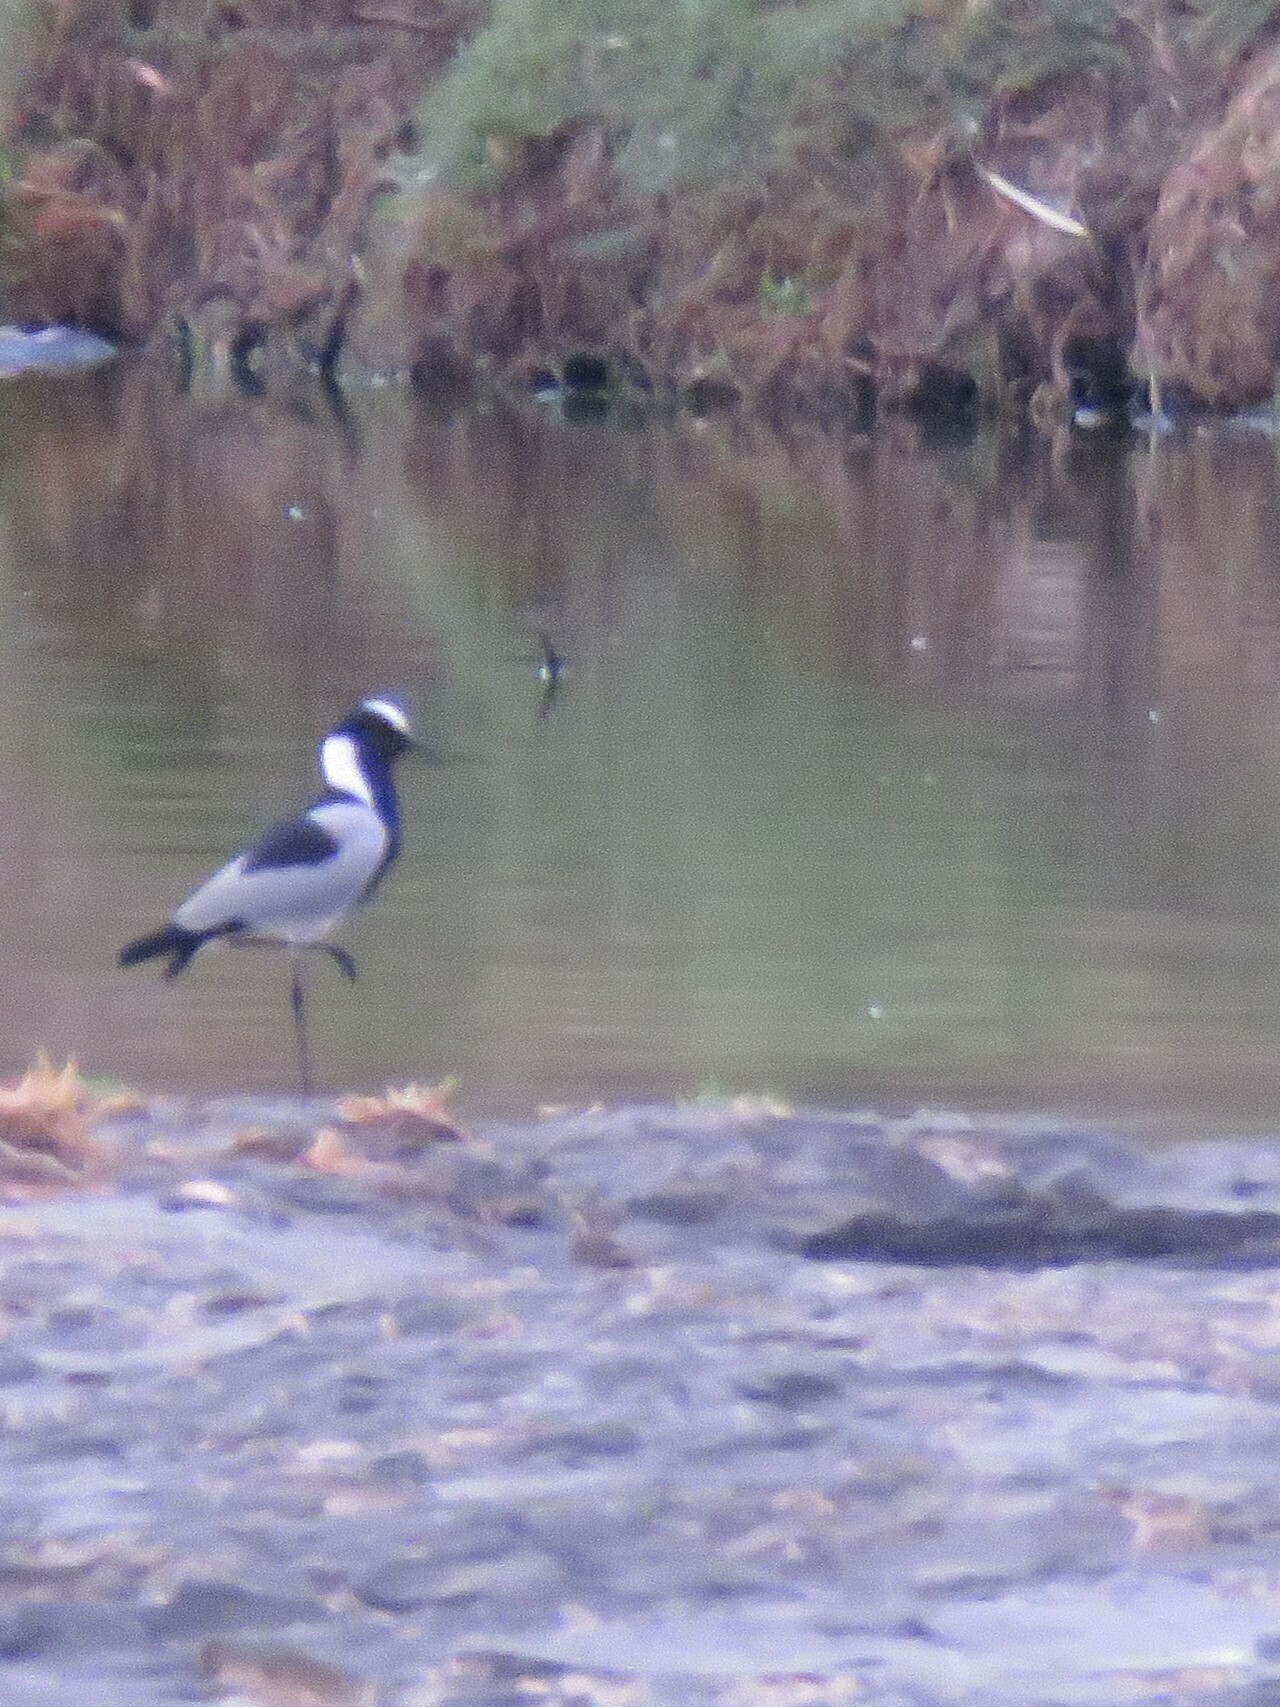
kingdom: Animalia
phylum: Chordata
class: Aves
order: Charadriiformes
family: Charadriidae
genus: Vanellus
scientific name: Vanellus armatus
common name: Blacksmith lapwing
